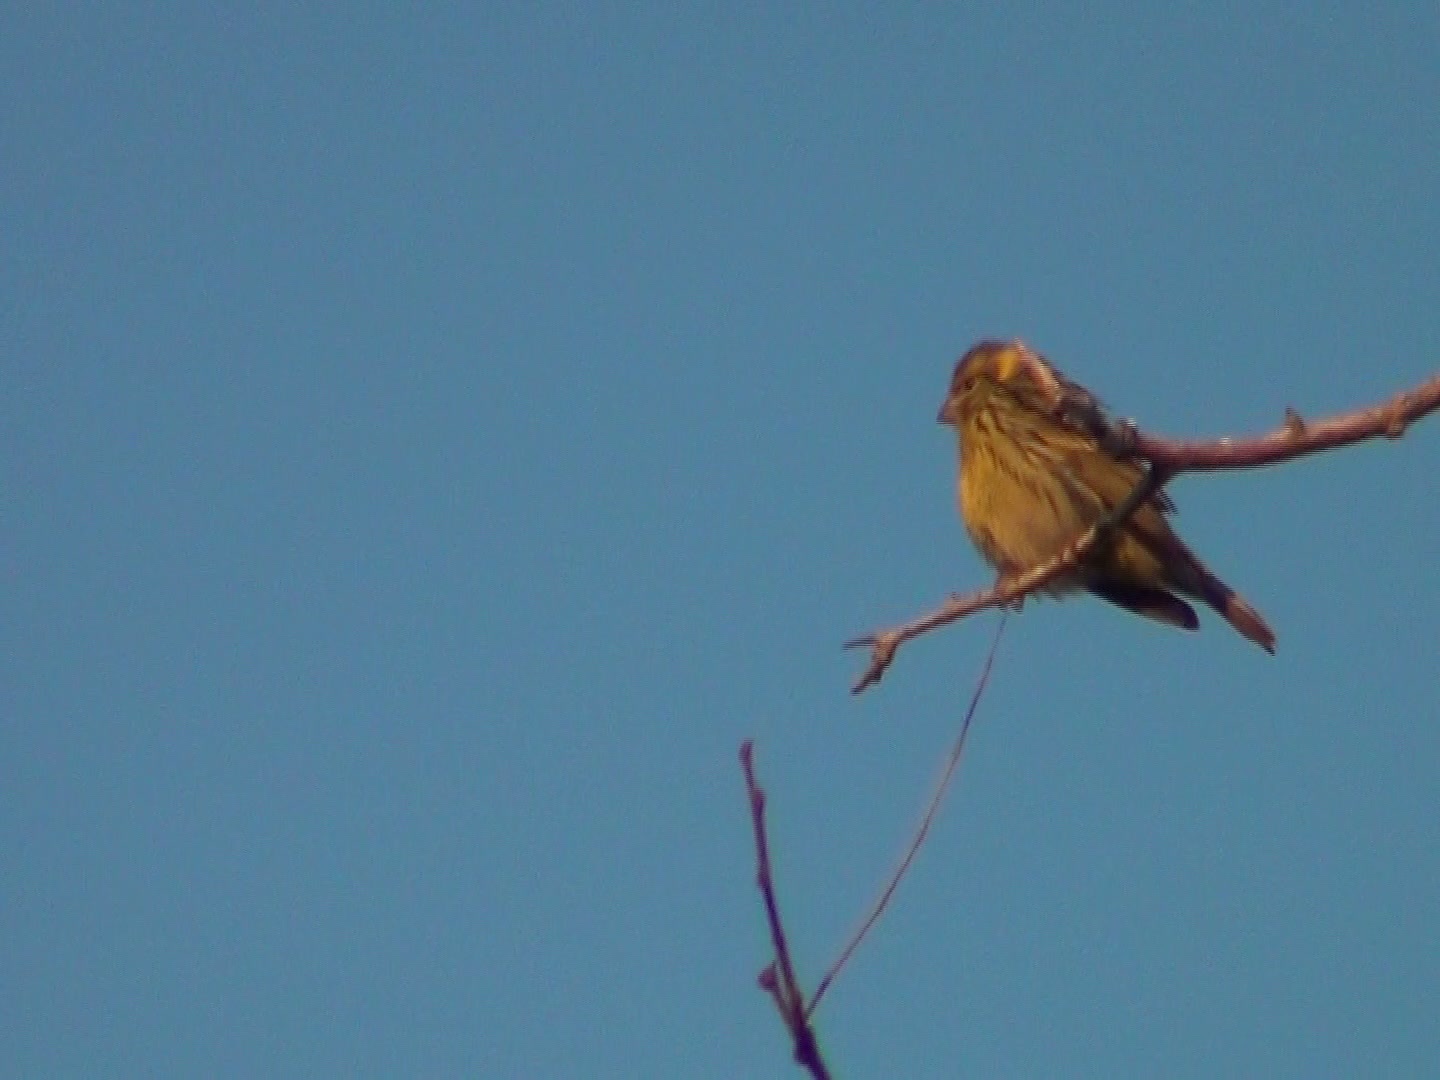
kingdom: Animalia
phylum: Chordata
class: Aves
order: Passeriformes
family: Fringillidae
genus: Serinus
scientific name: Serinus serinus
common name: European serin
